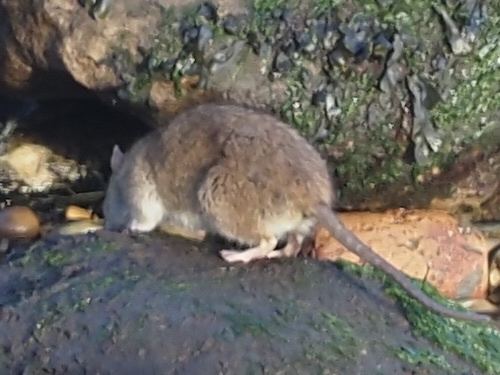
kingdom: Animalia
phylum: Chordata
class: Mammalia
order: Rodentia
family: Muridae
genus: Rattus
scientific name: Rattus norvegicus
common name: Brown rat
